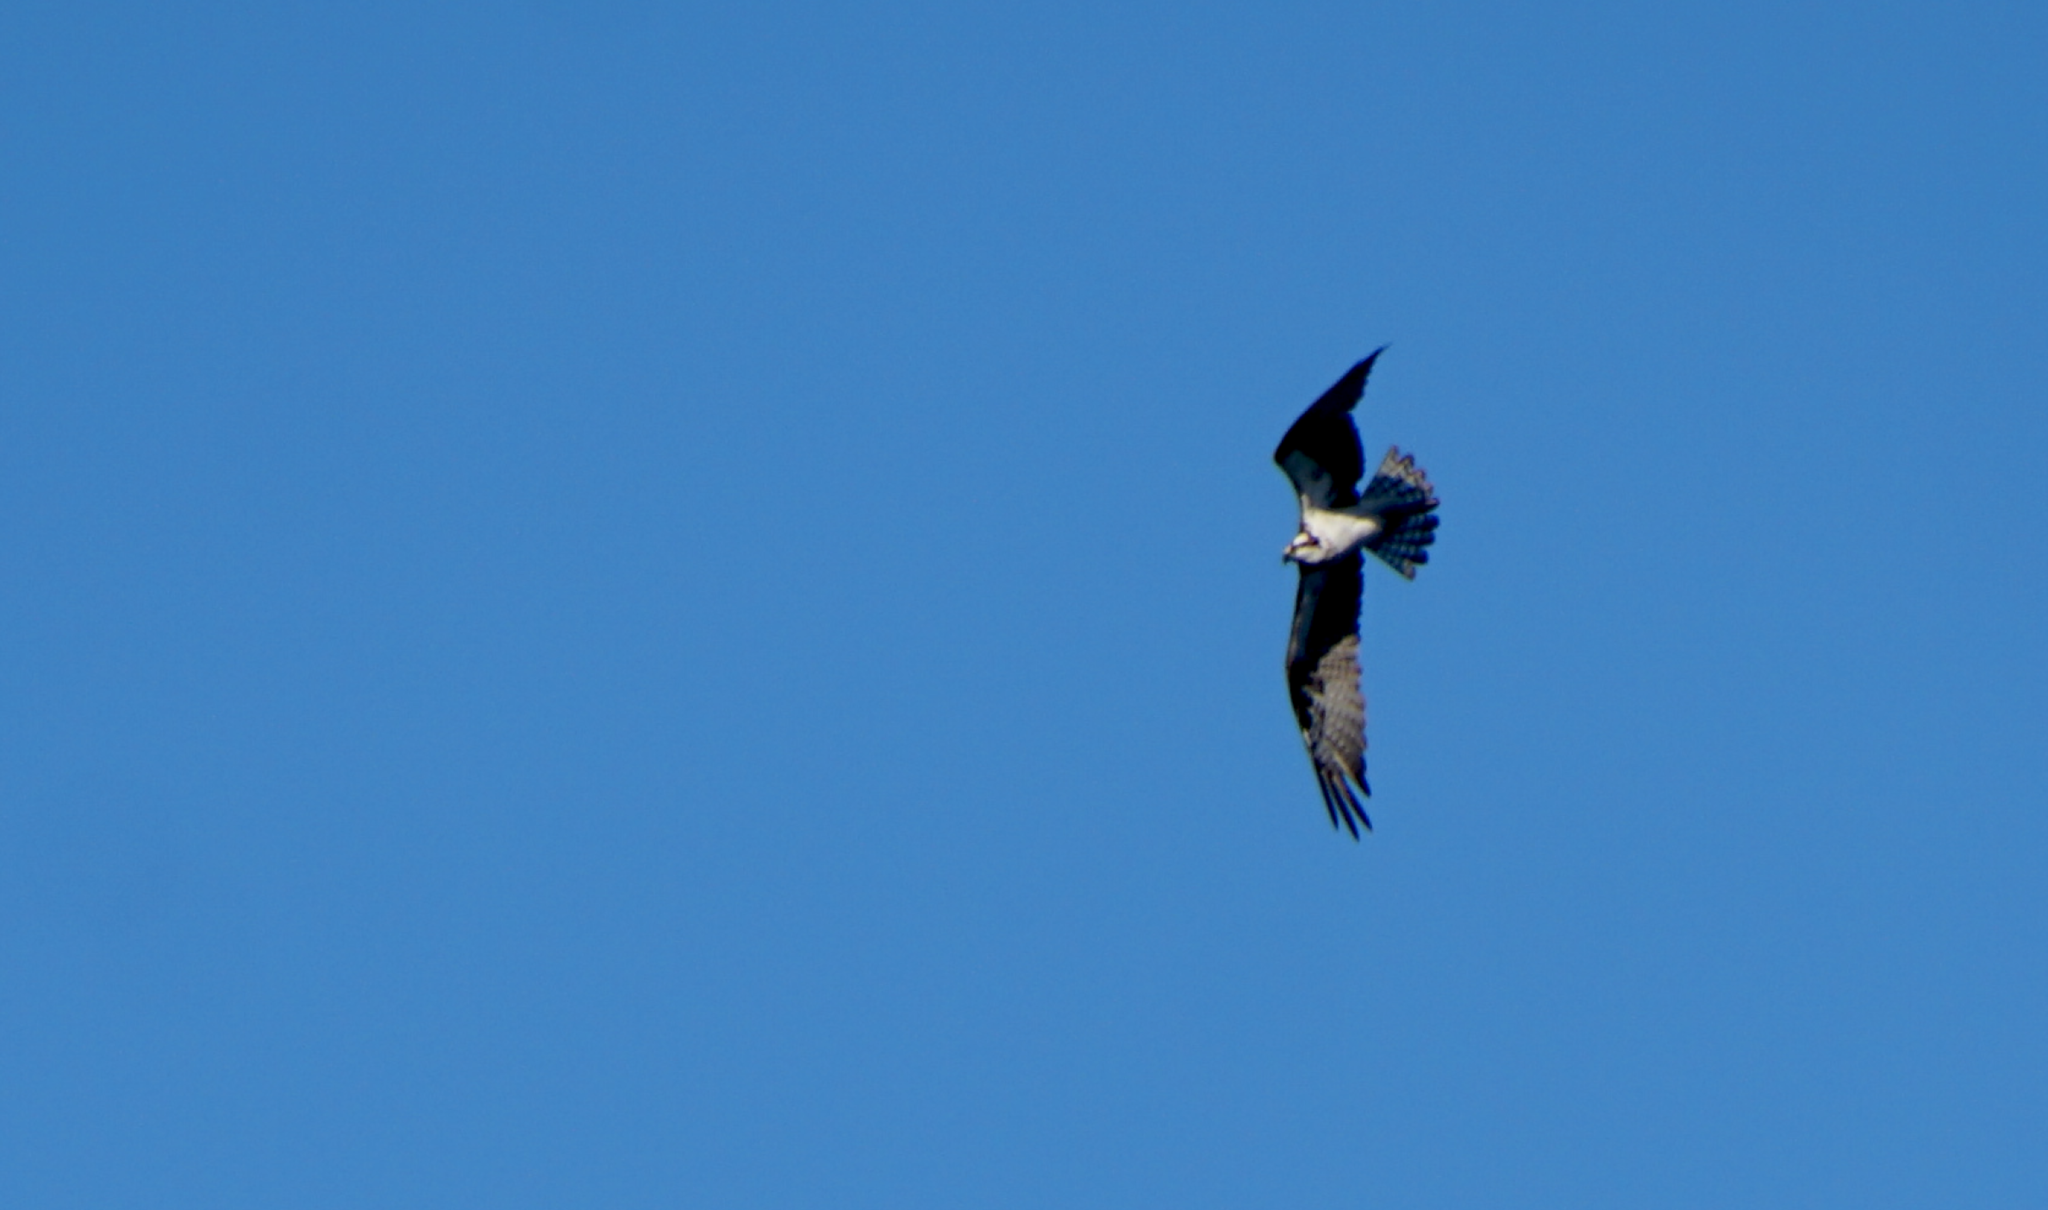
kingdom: Animalia
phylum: Chordata
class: Aves
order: Accipitriformes
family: Pandionidae
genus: Pandion
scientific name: Pandion haliaetus
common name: Osprey
